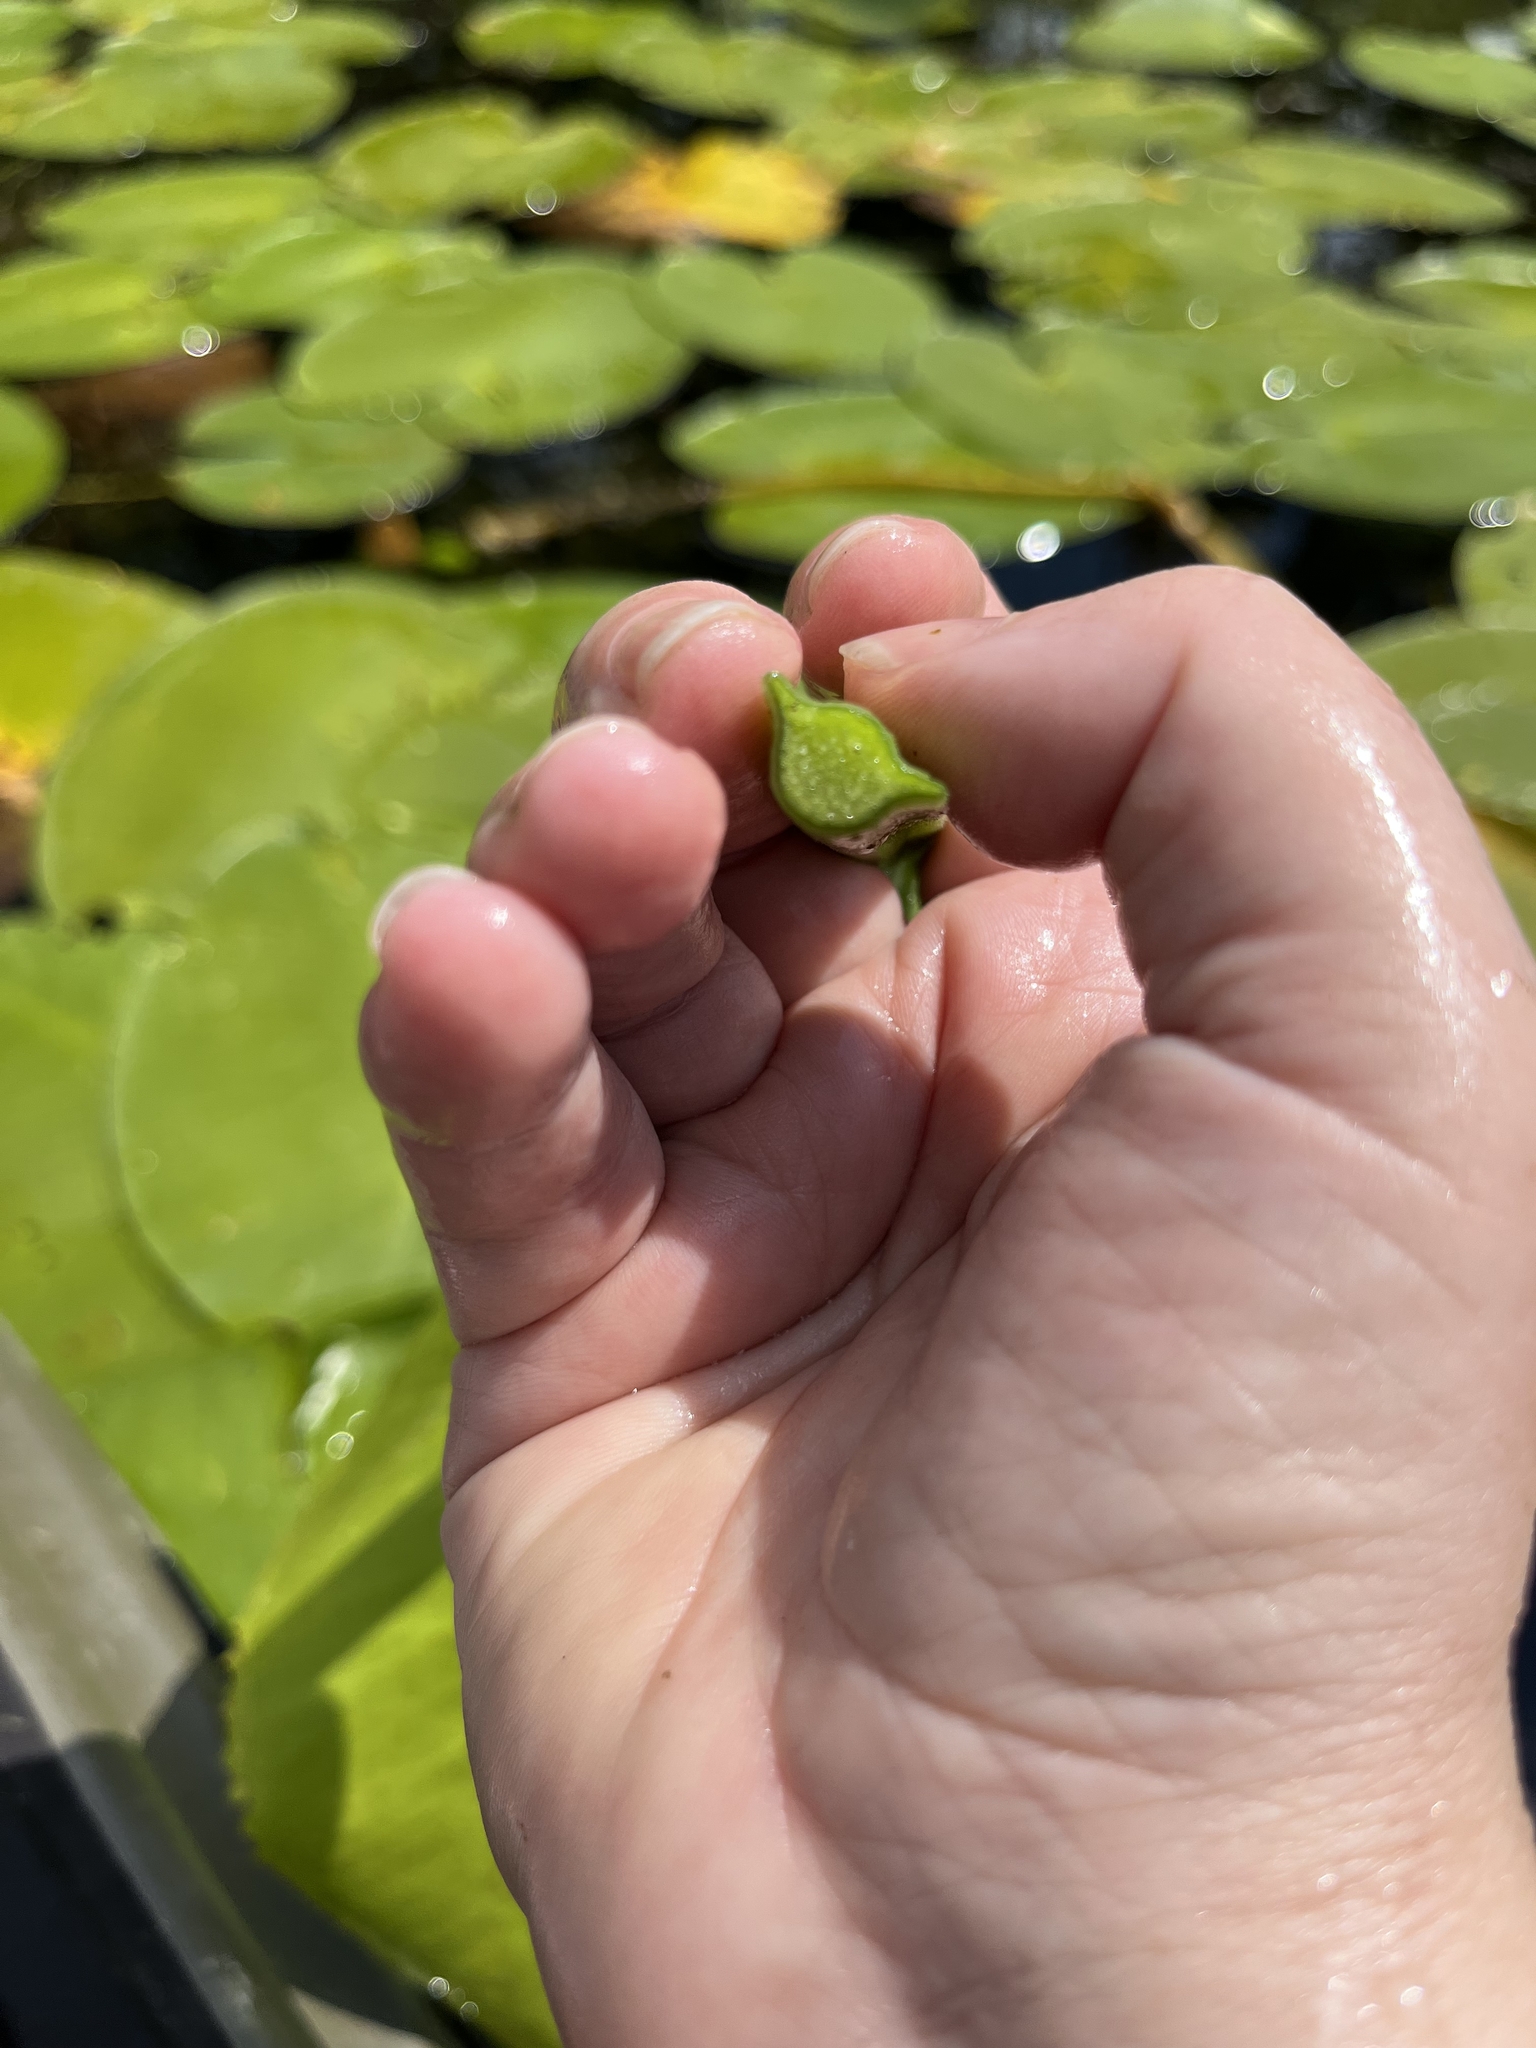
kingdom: Plantae
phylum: Tracheophyta
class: Magnoliopsida
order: Nymphaeales
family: Nymphaeaceae
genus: Nuphar
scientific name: Nuphar variegata
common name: Beaver-root
